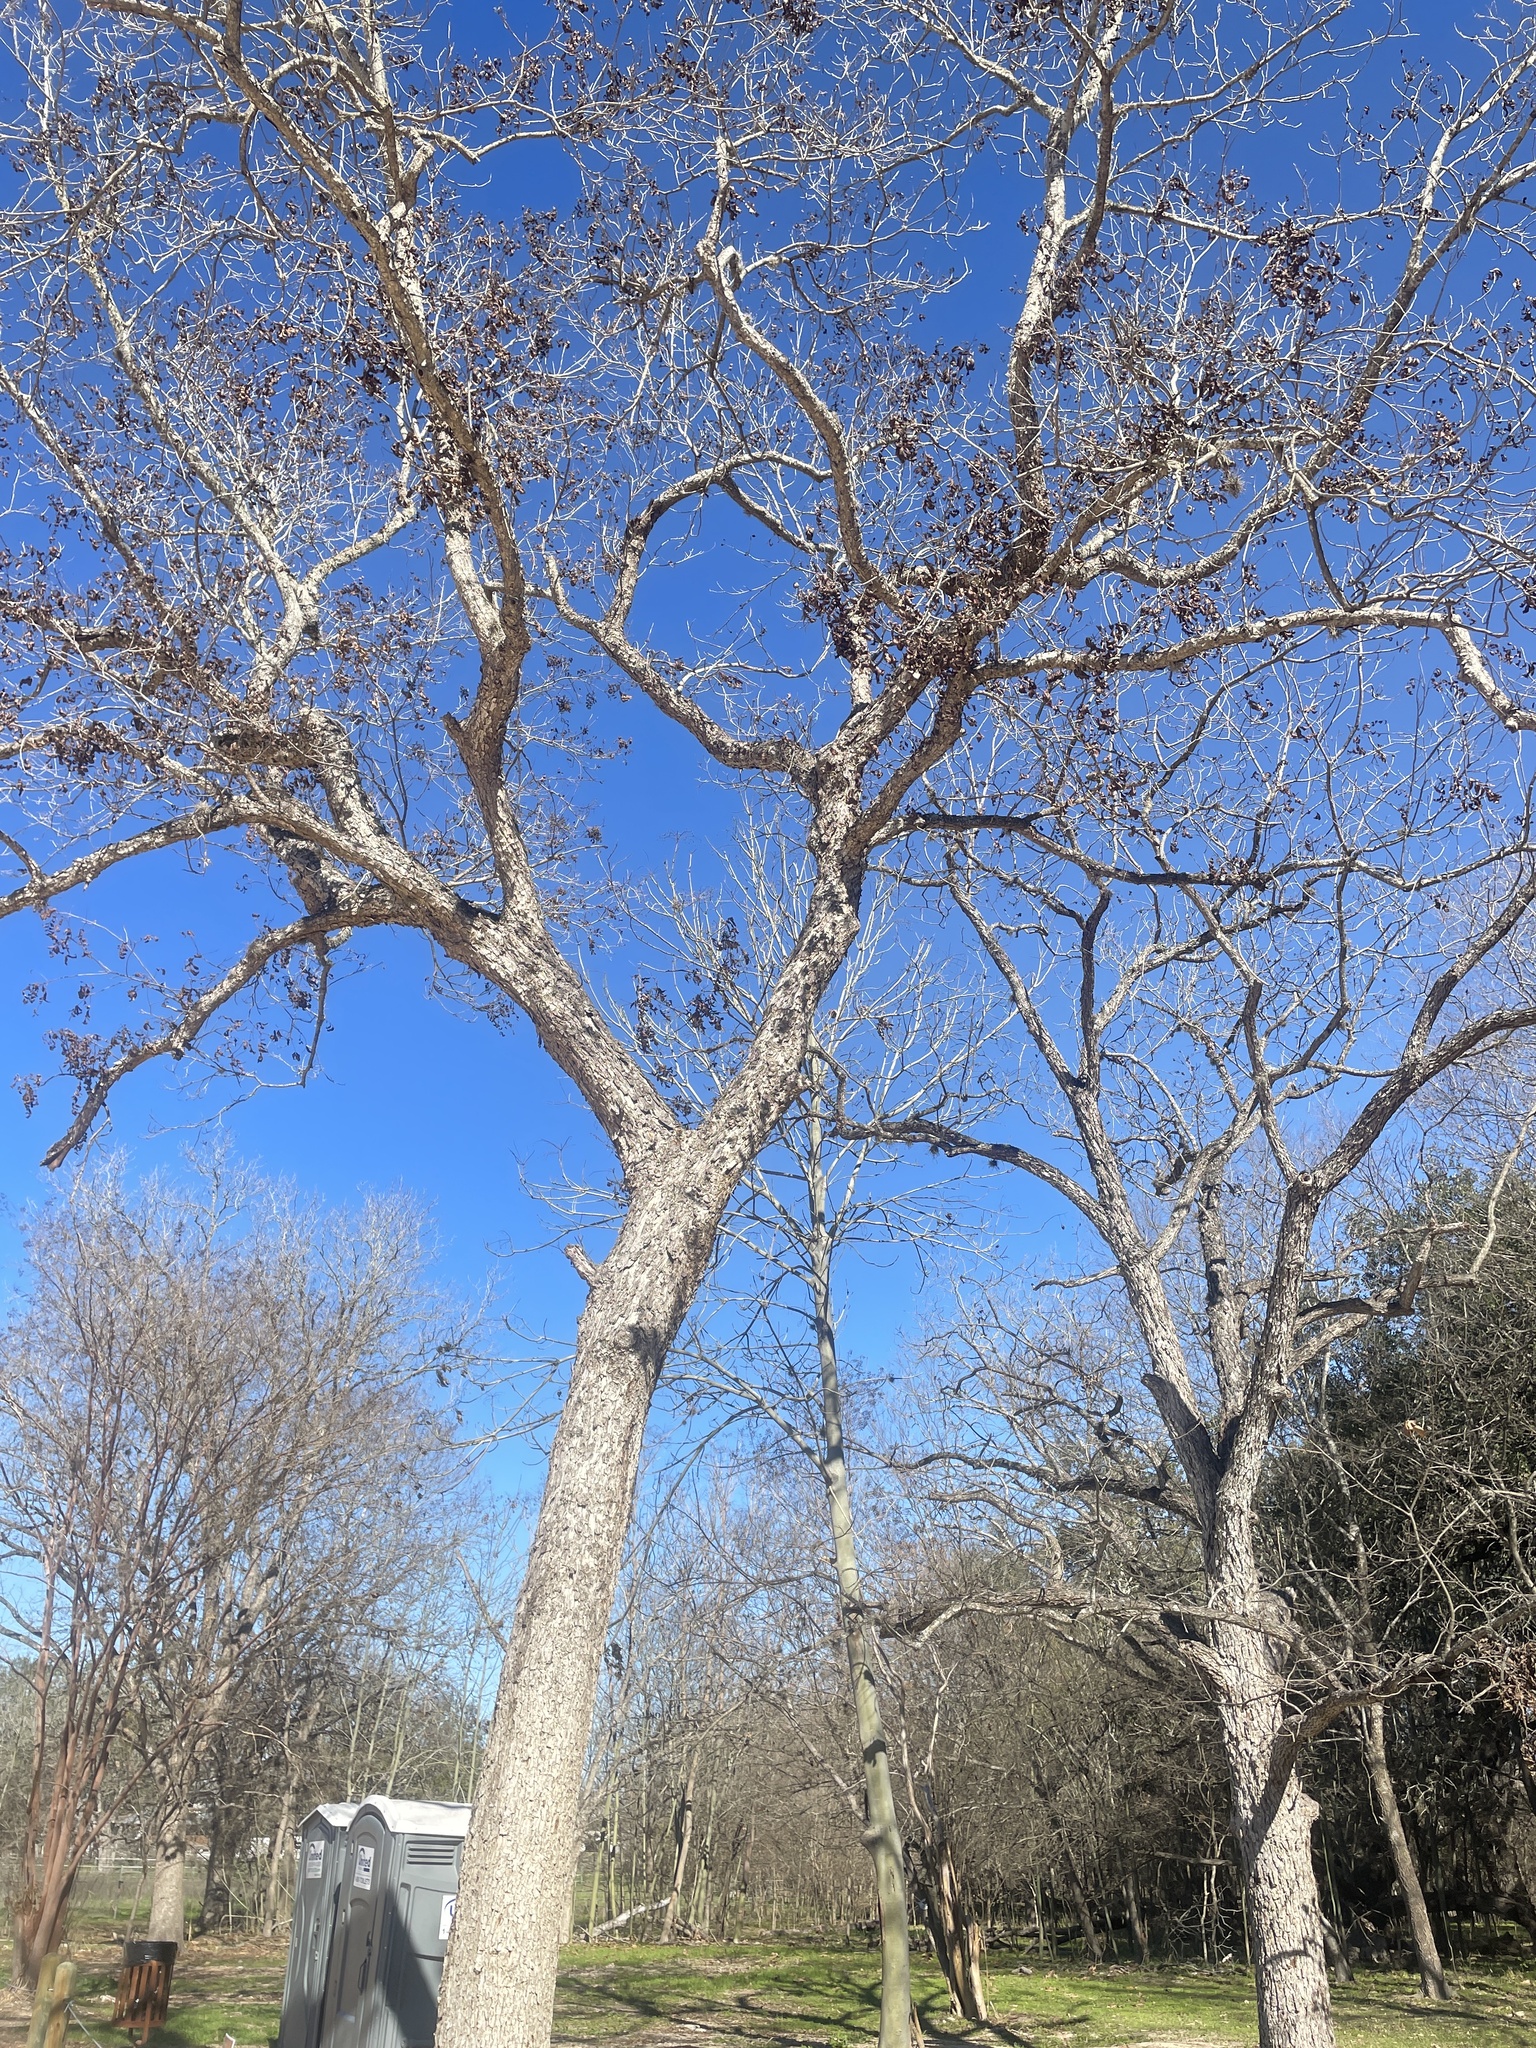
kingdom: Plantae
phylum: Tracheophyta
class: Magnoliopsida
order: Fagales
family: Juglandaceae
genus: Carya
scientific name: Carya illinoinensis
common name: Pecan
